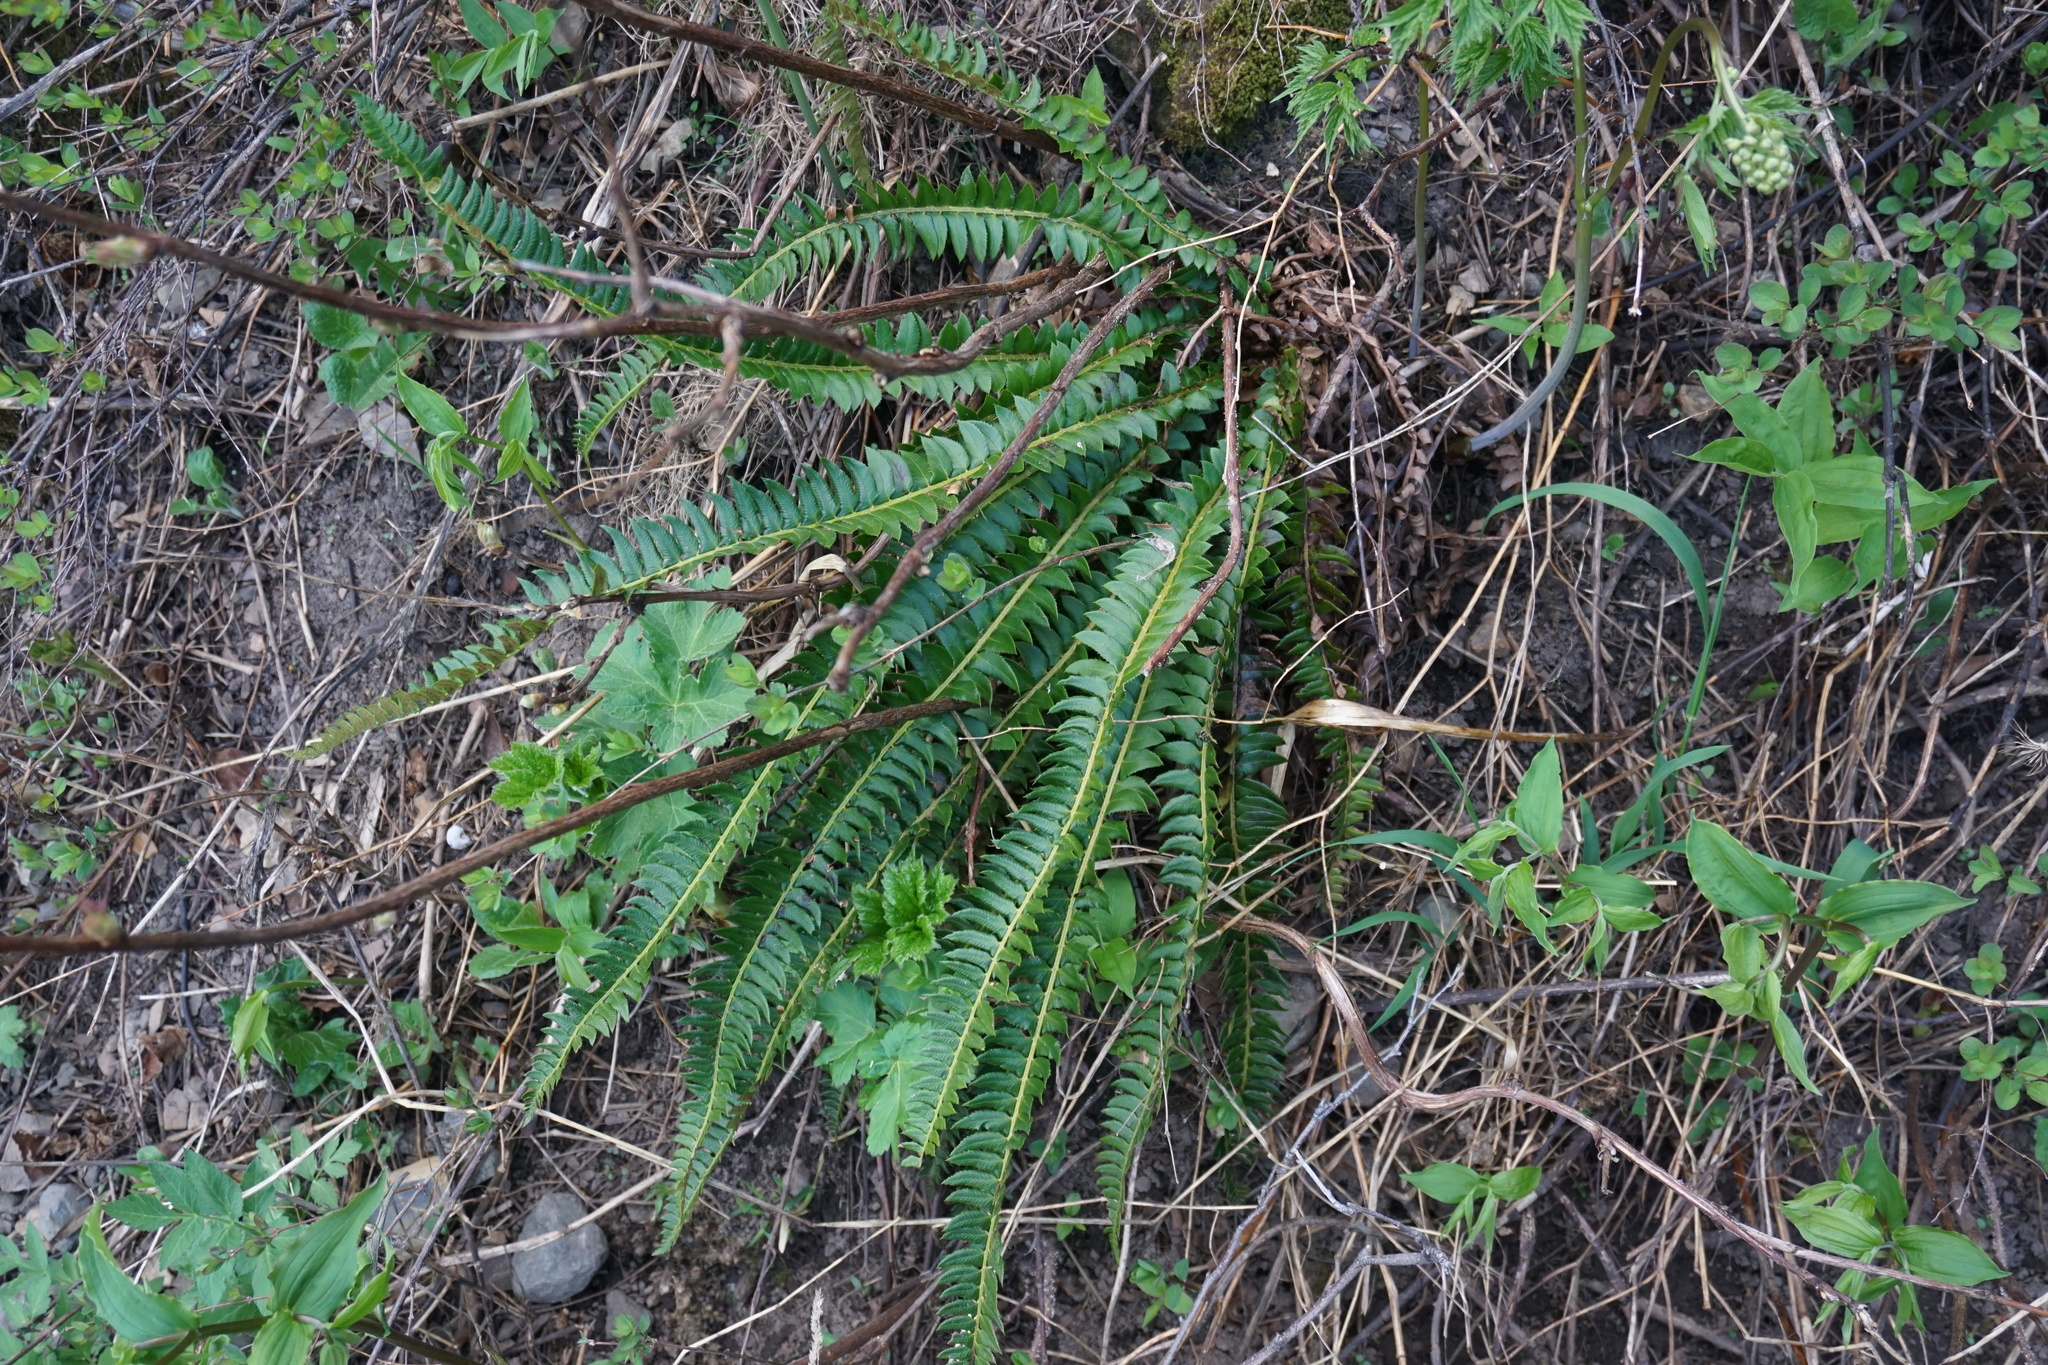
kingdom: Plantae
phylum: Tracheophyta
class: Polypodiopsida
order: Polypodiales
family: Dryopteridaceae
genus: Polystichum
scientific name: Polystichum lonchitis
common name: Holly fern
